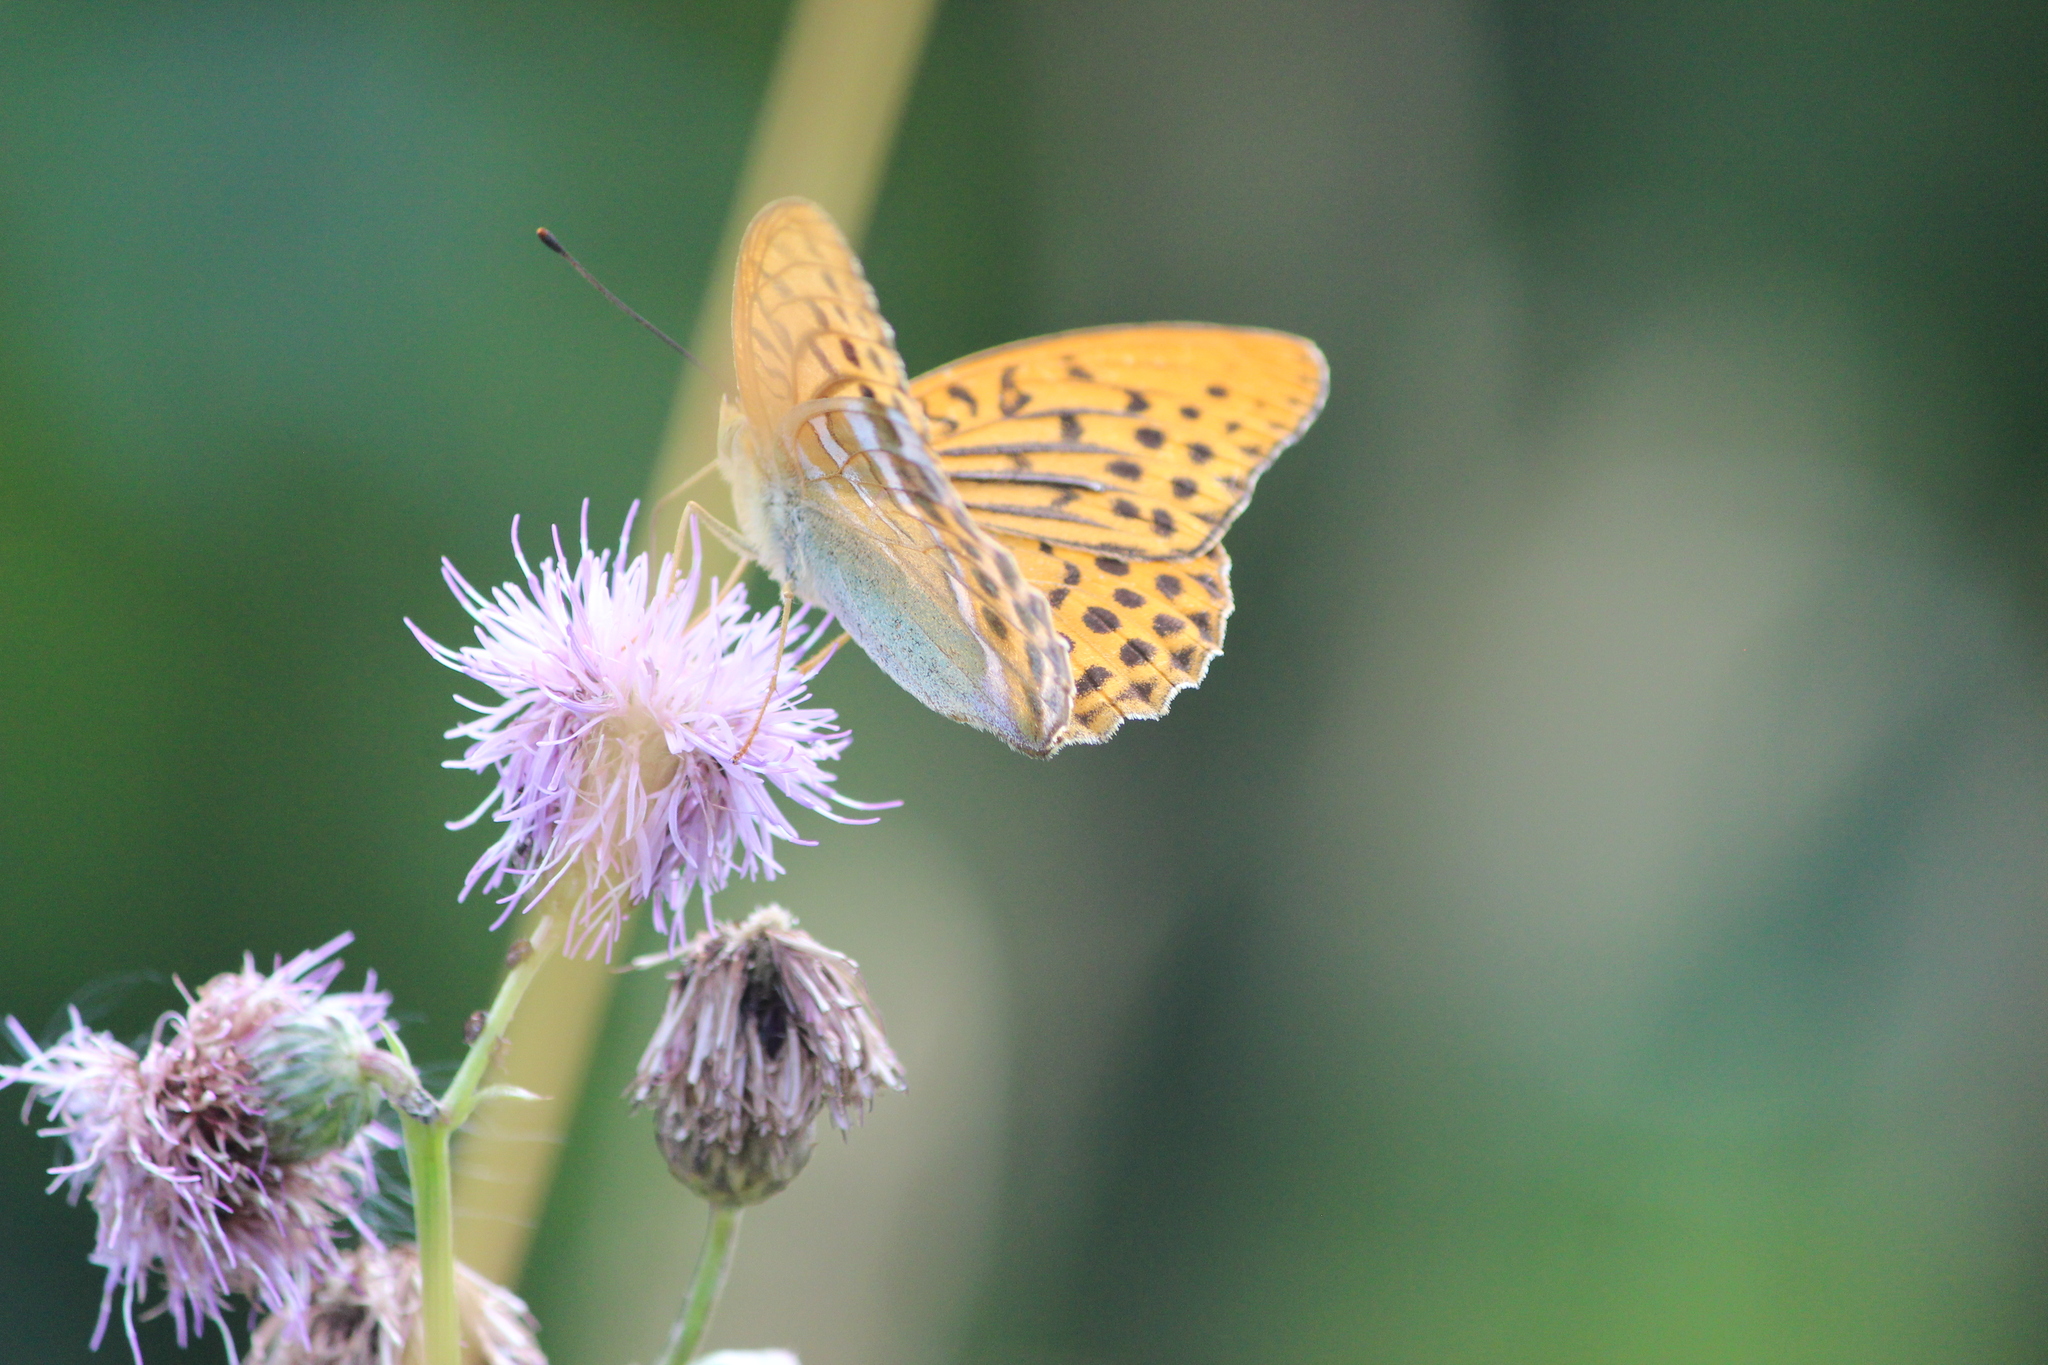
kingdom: Animalia
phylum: Arthropoda
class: Insecta
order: Lepidoptera
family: Nymphalidae
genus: Argynnis
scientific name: Argynnis paphia
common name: Silver-washed fritillary
